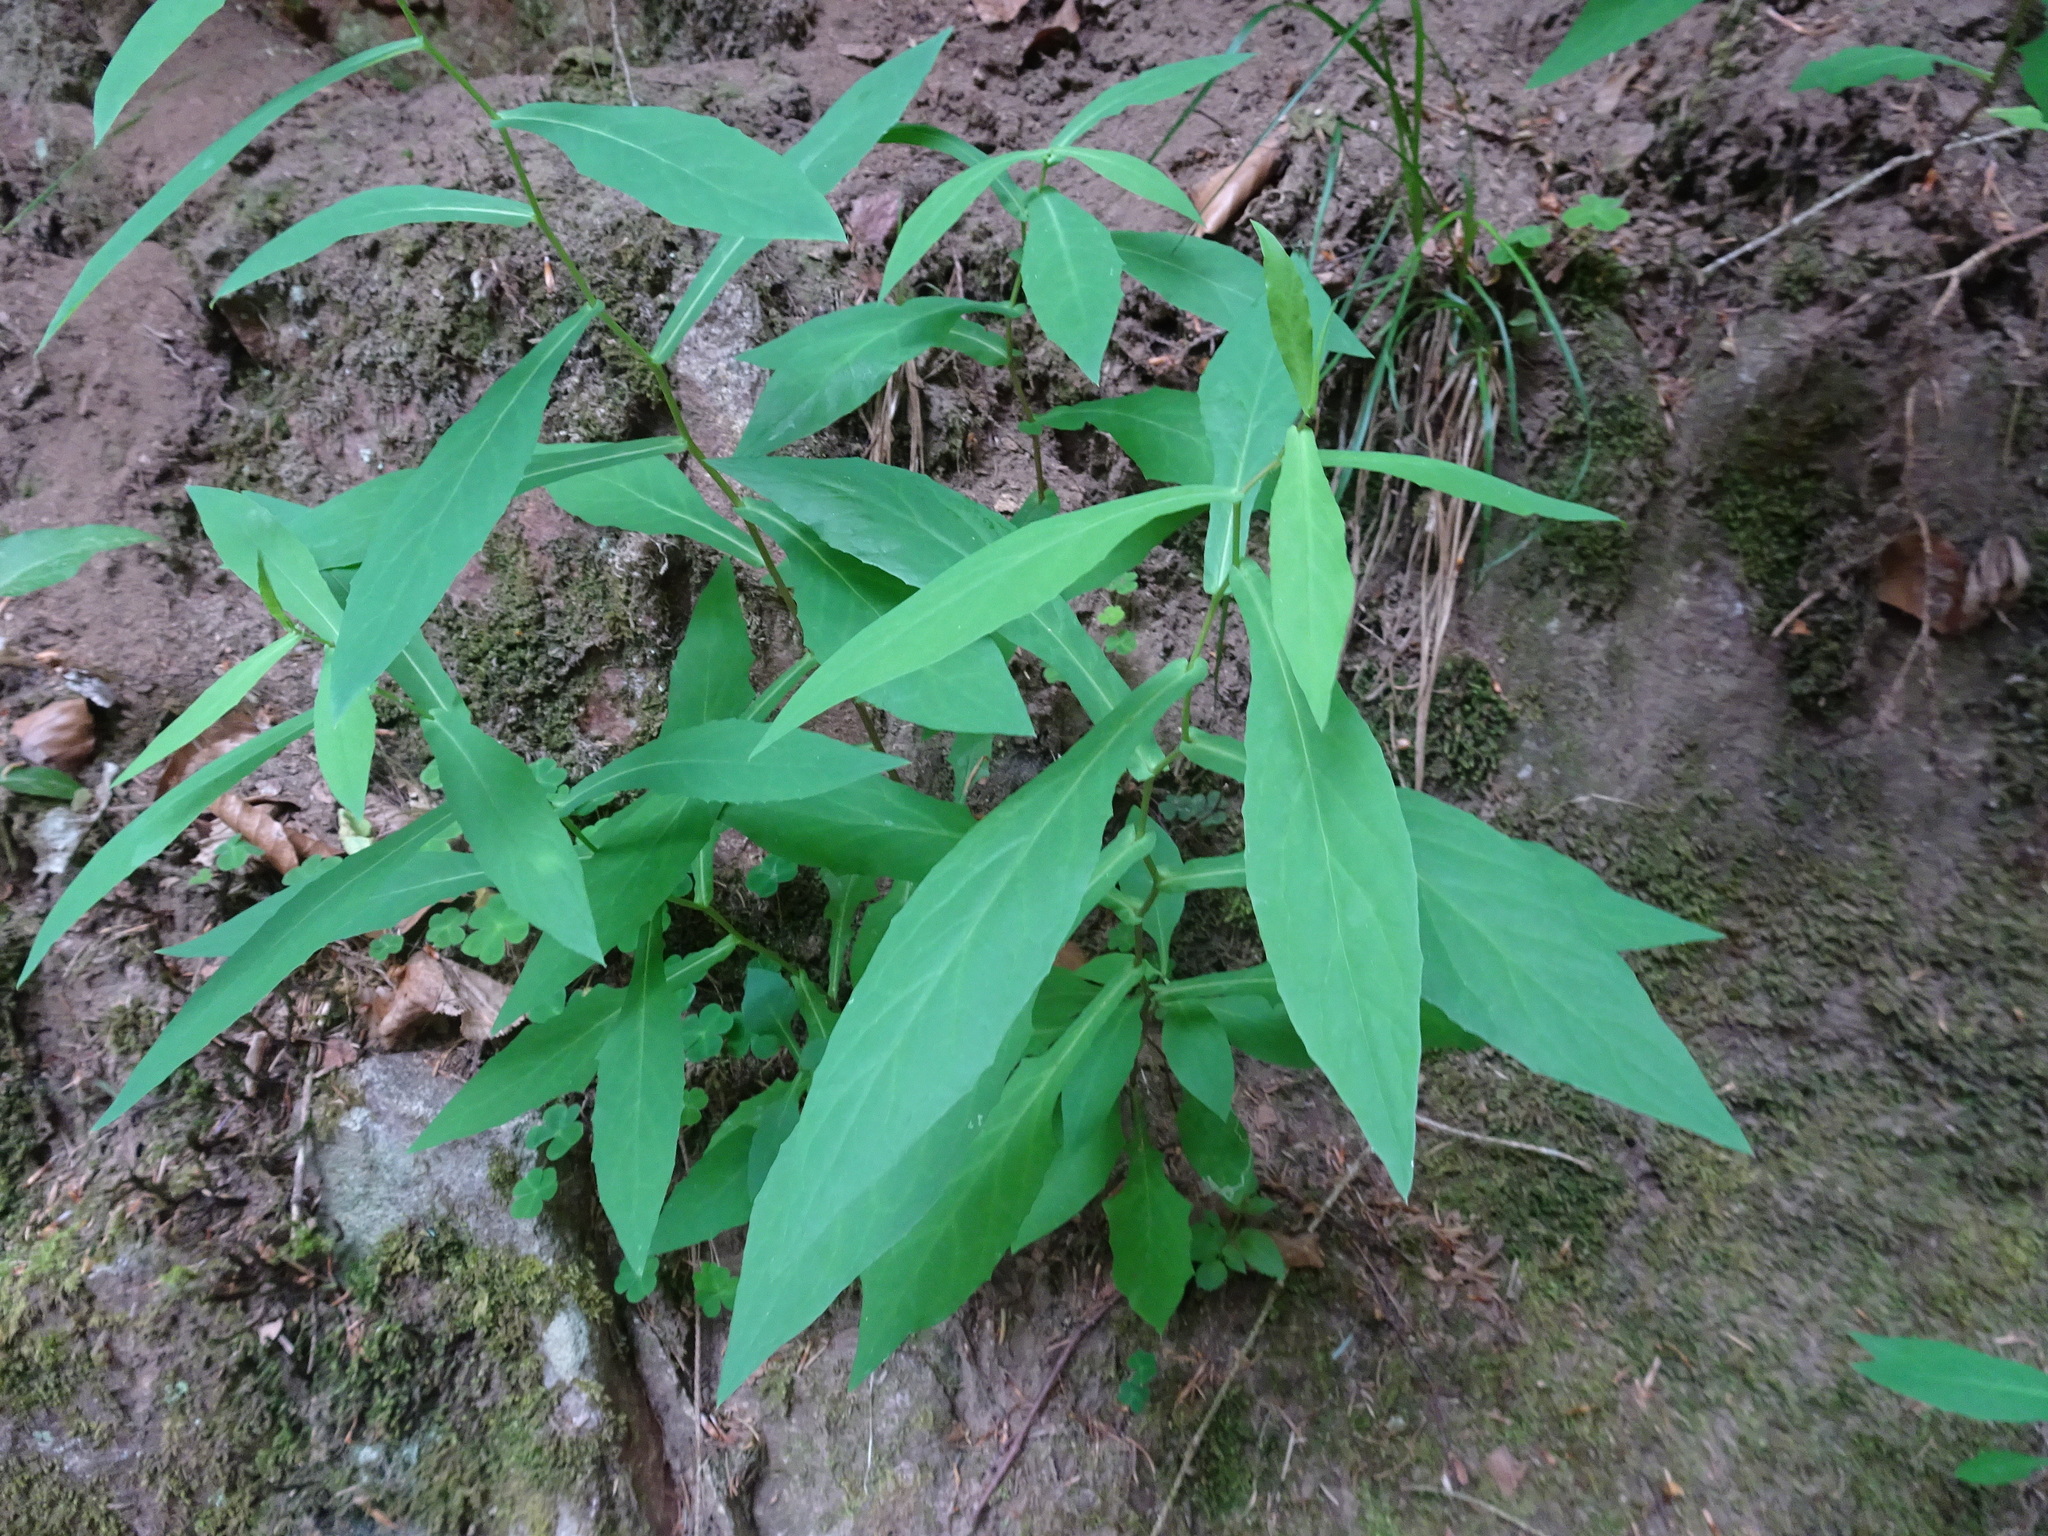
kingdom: Plantae
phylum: Tracheophyta
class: Magnoliopsida
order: Asterales
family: Asteraceae
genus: Prenanthes
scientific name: Prenanthes purpurea
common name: Purple lettuce
